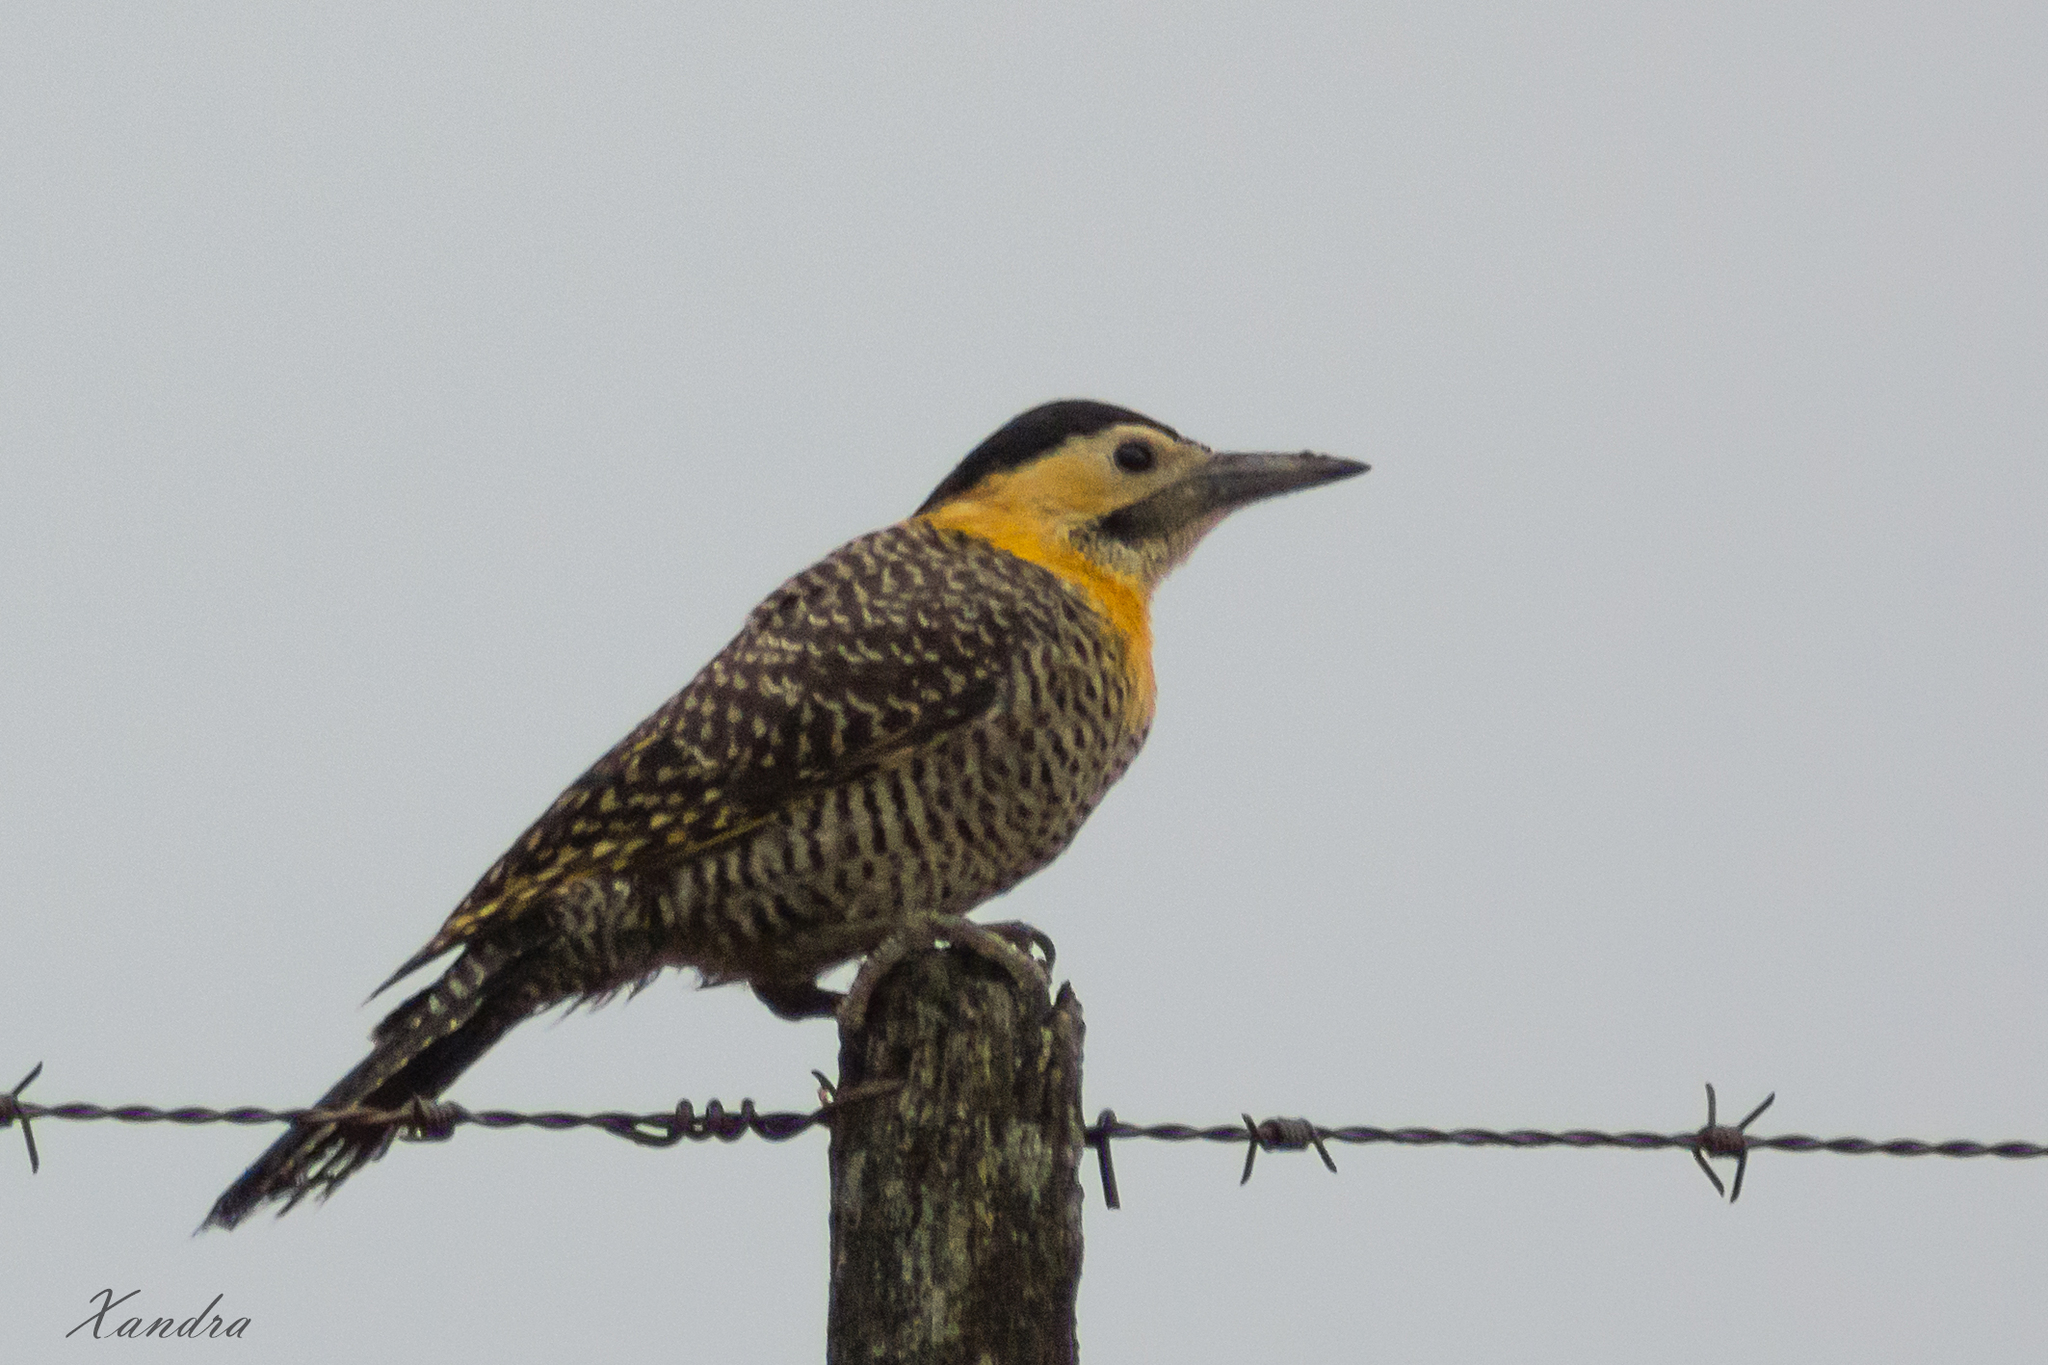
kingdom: Animalia
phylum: Chordata
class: Aves
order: Piciformes
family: Picidae
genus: Colaptes
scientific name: Colaptes campestris
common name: Campo flicker
